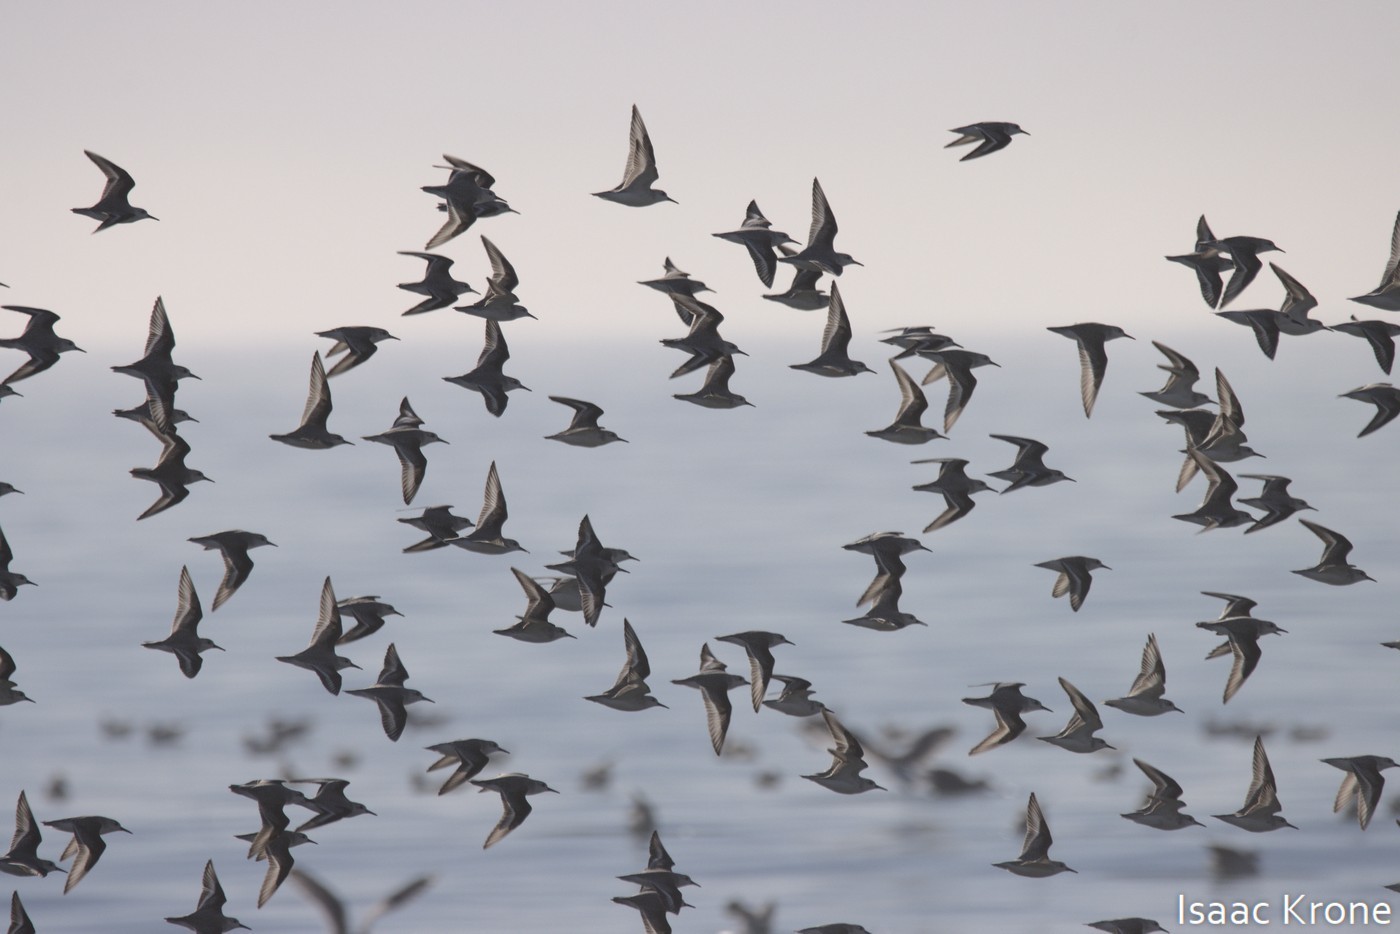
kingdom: Animalia
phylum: Chordata
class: Aves
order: Charadriiformes
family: Scolopacidae
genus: Calidris
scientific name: Calidris alba
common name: Sanderling
